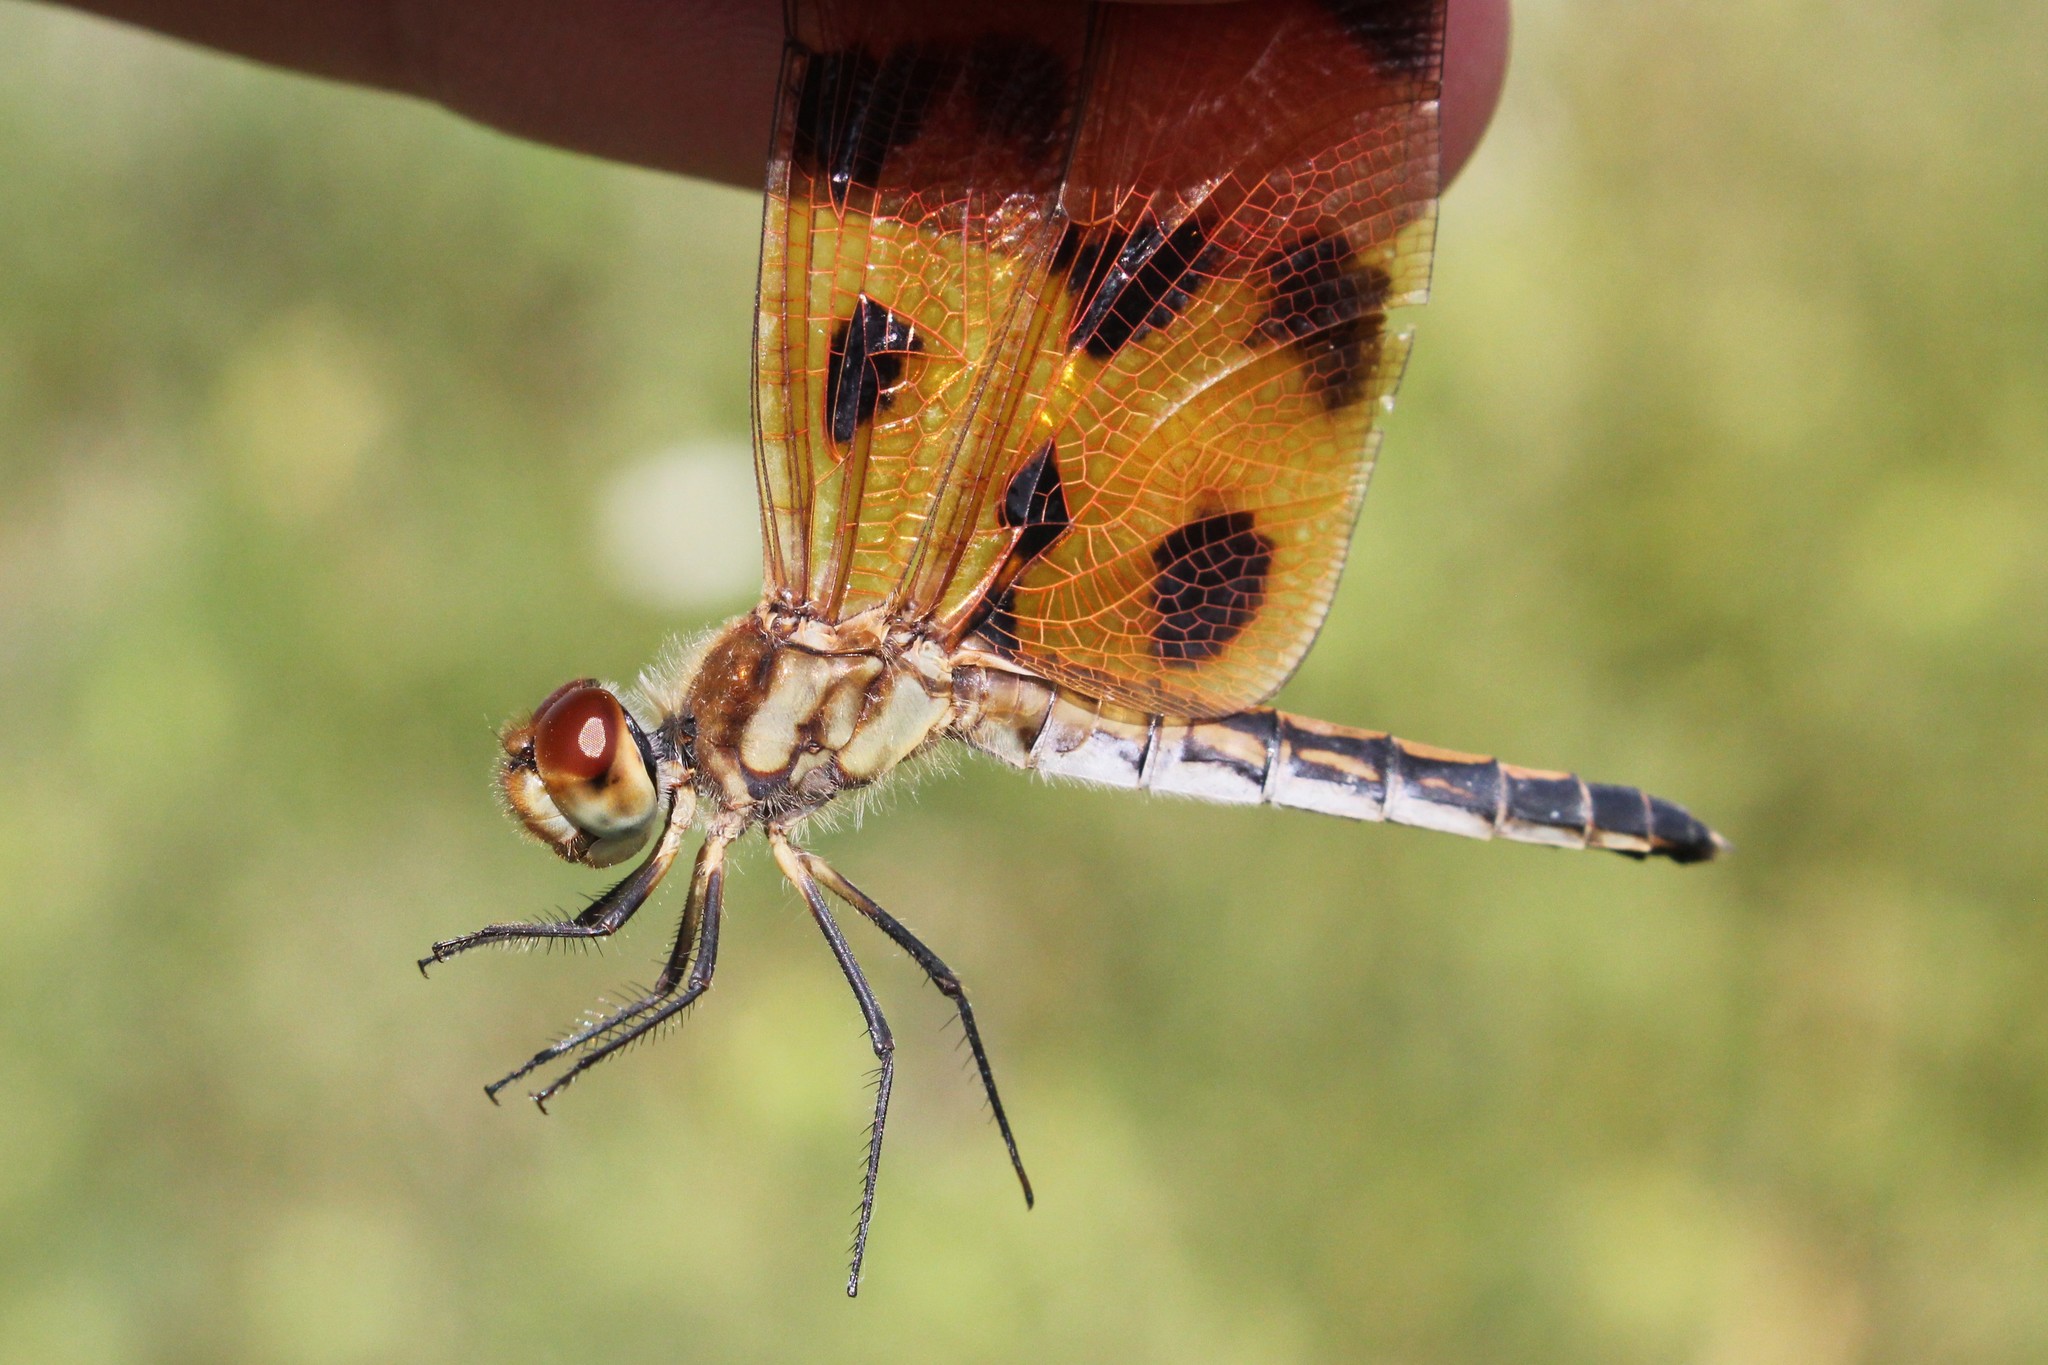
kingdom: Animalia
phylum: Arthropoda
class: Insecta
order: Odonata
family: Libellulidae
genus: Celithemis
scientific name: Celithemis eponina
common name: Halloween pennant
